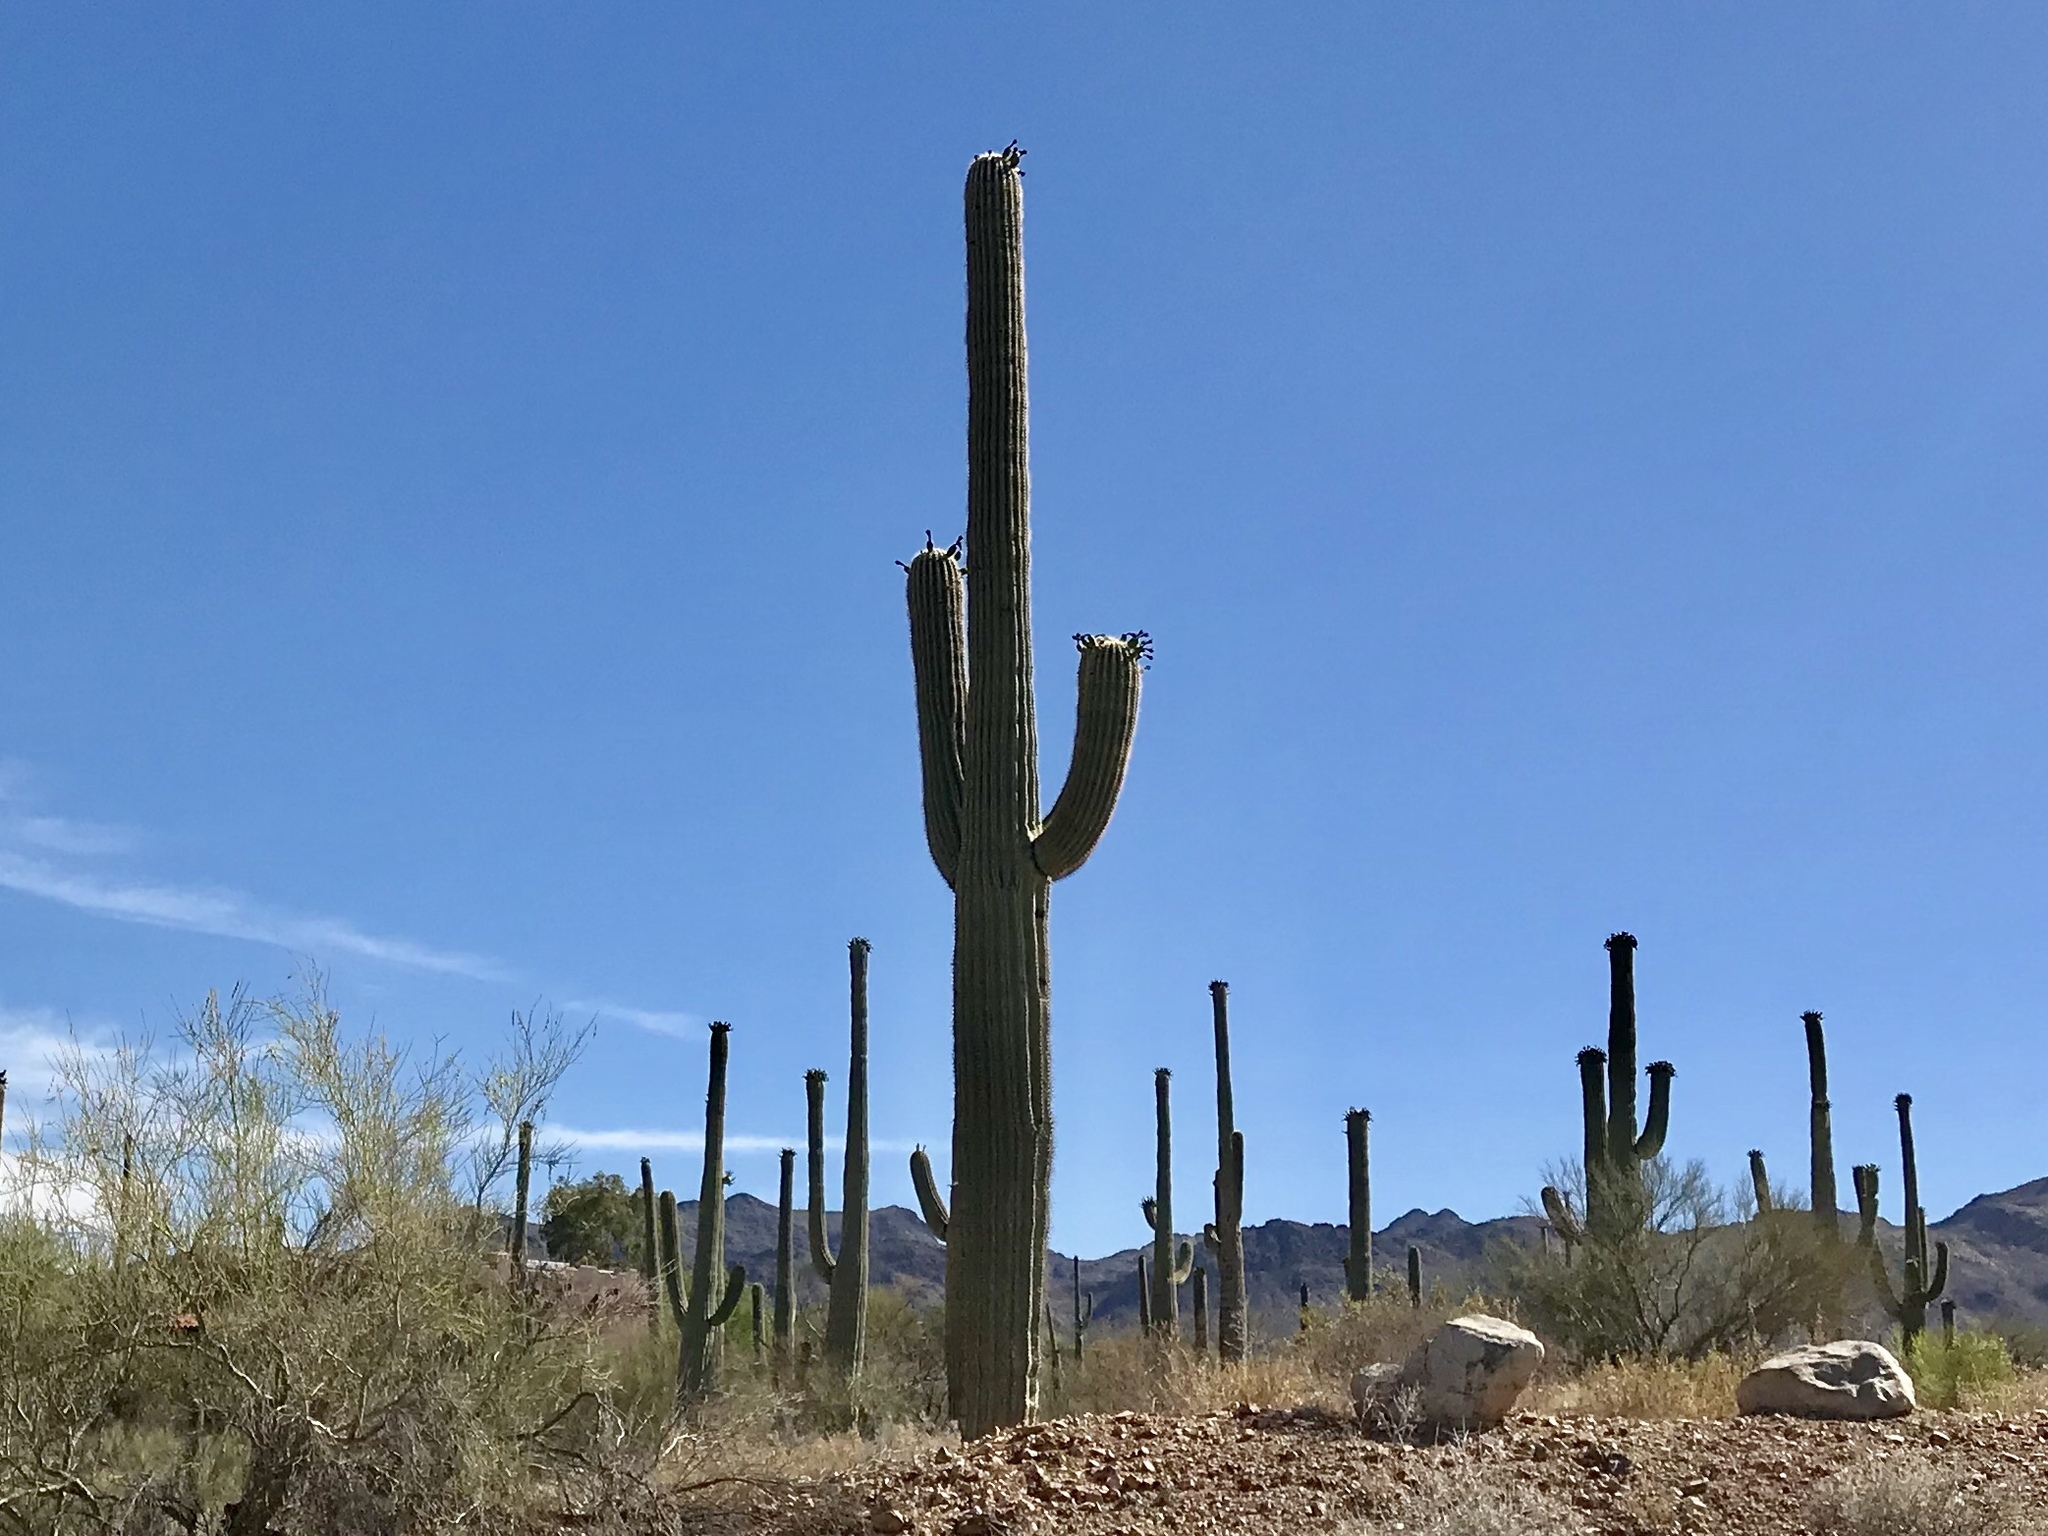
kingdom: Plantae
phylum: Tracheophyta
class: Magnoliopsida
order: Caryophyllales
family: Cactaceae
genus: Carnegiea
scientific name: Carnegiea gigantea
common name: Saguaro
